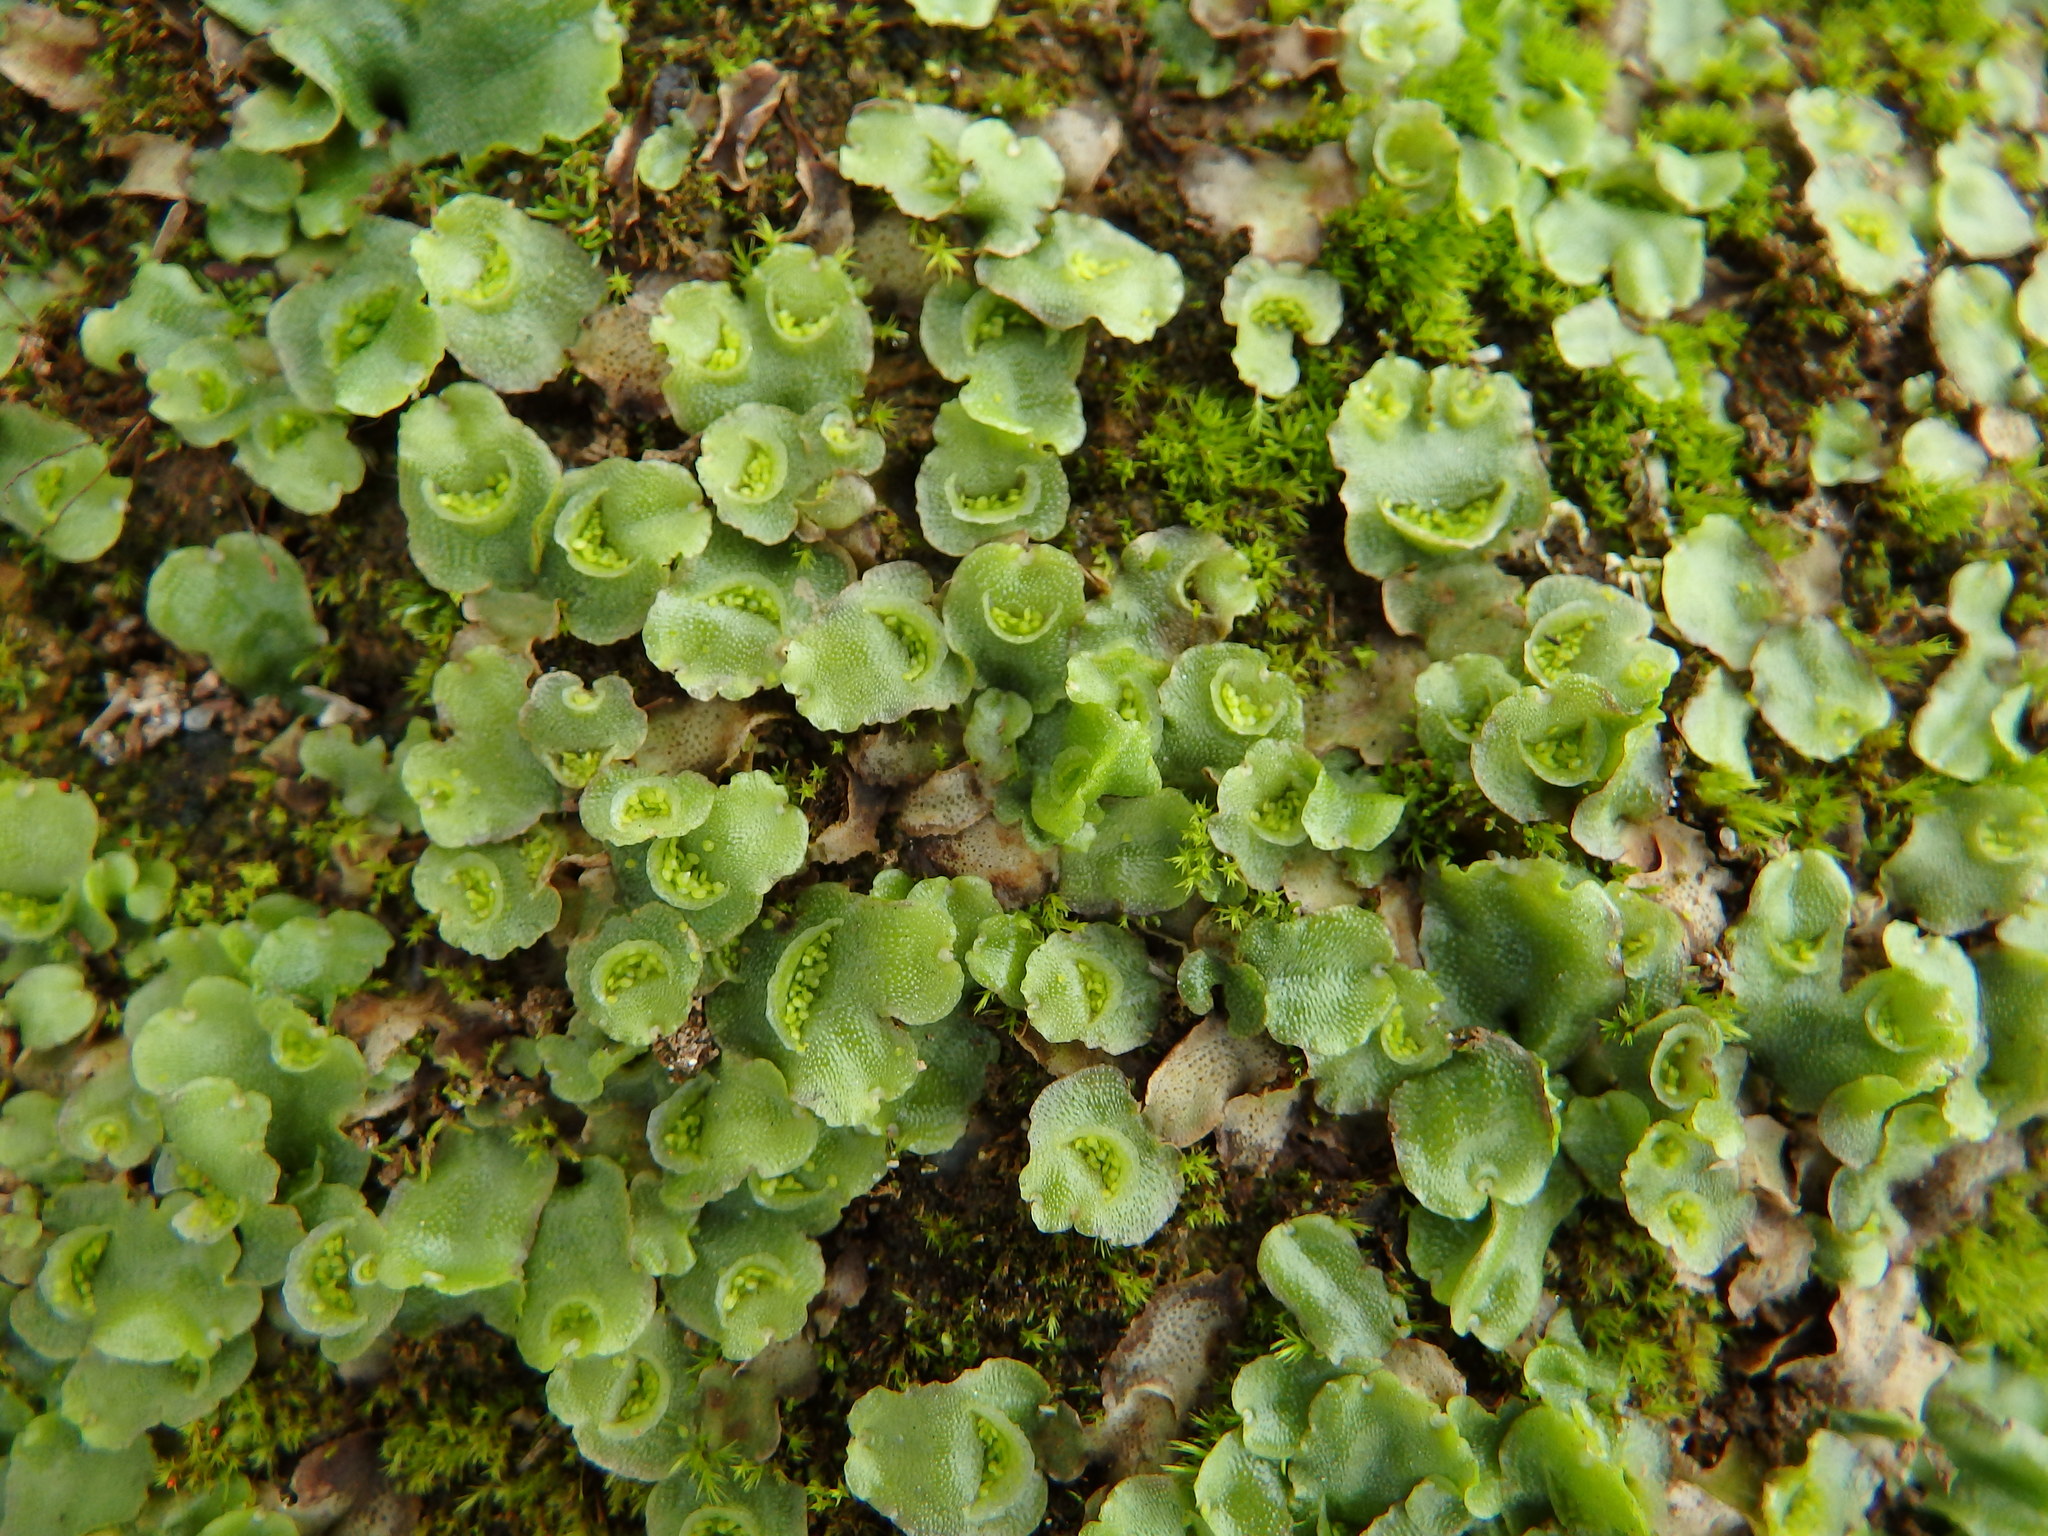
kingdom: Plantae
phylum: Marchantiophyta
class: Marchantiopsida
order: Lunulariales
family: Lunulariaceae
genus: Lunularia
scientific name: Lunularia cruciata
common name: Crescent-cup liverwort
